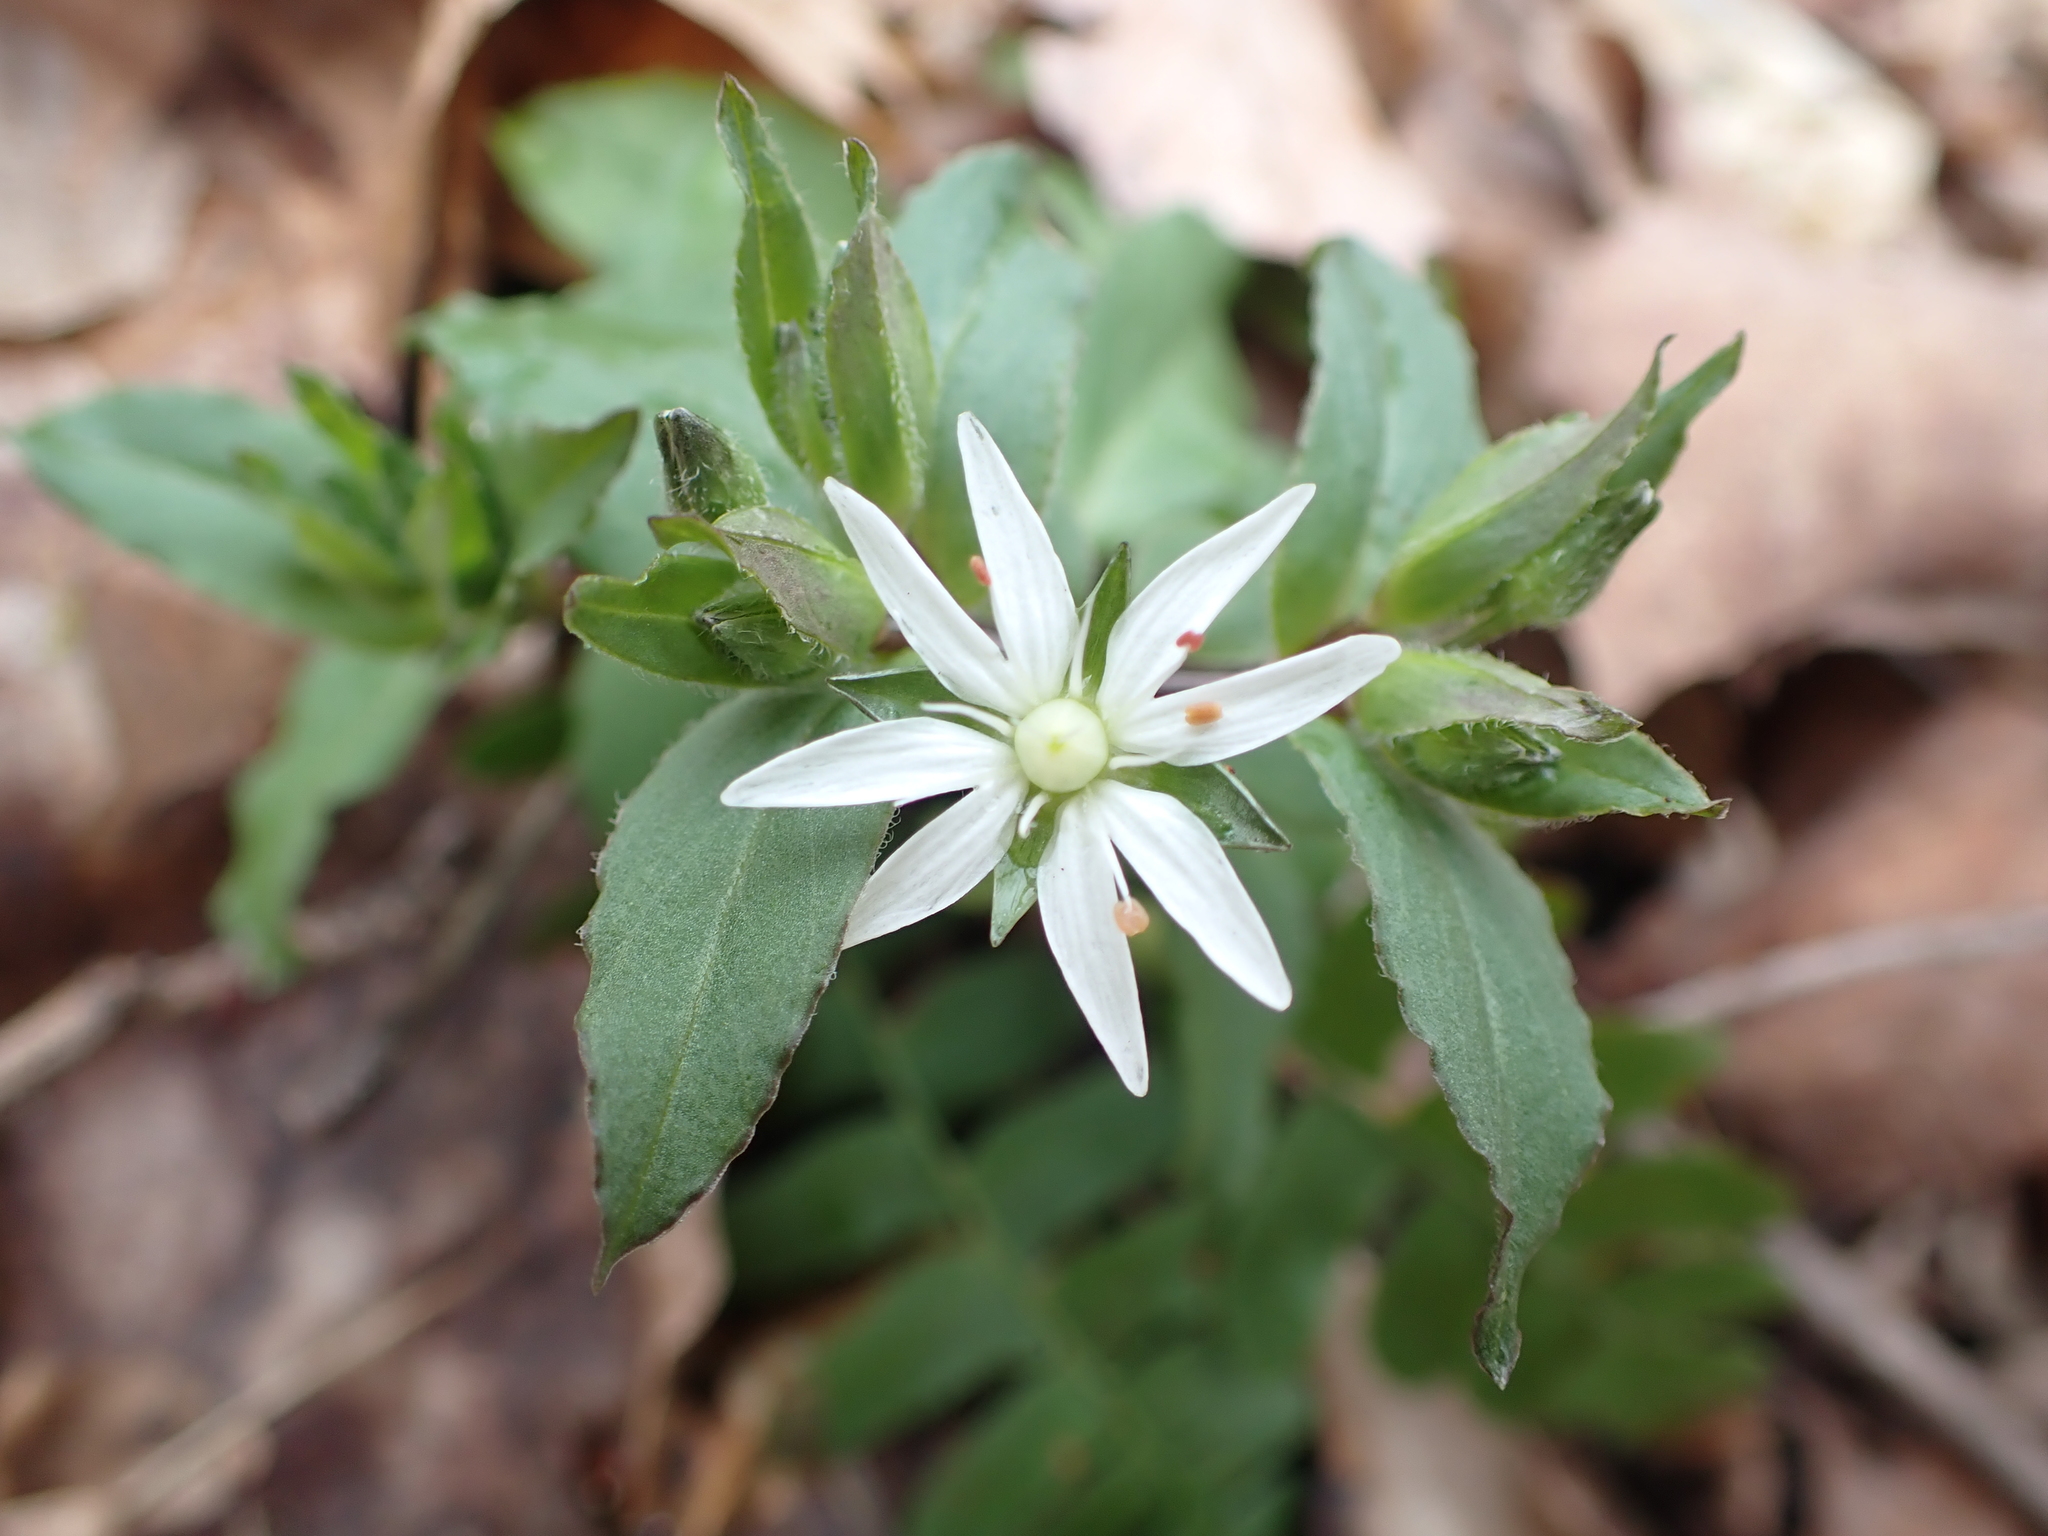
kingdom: Plantae
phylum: Tracheophyta
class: Magnoliopsida
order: Caryophyllales
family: Caryophyllaceae
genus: Stellaria
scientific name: Stellaria pubera
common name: Star chickweed
